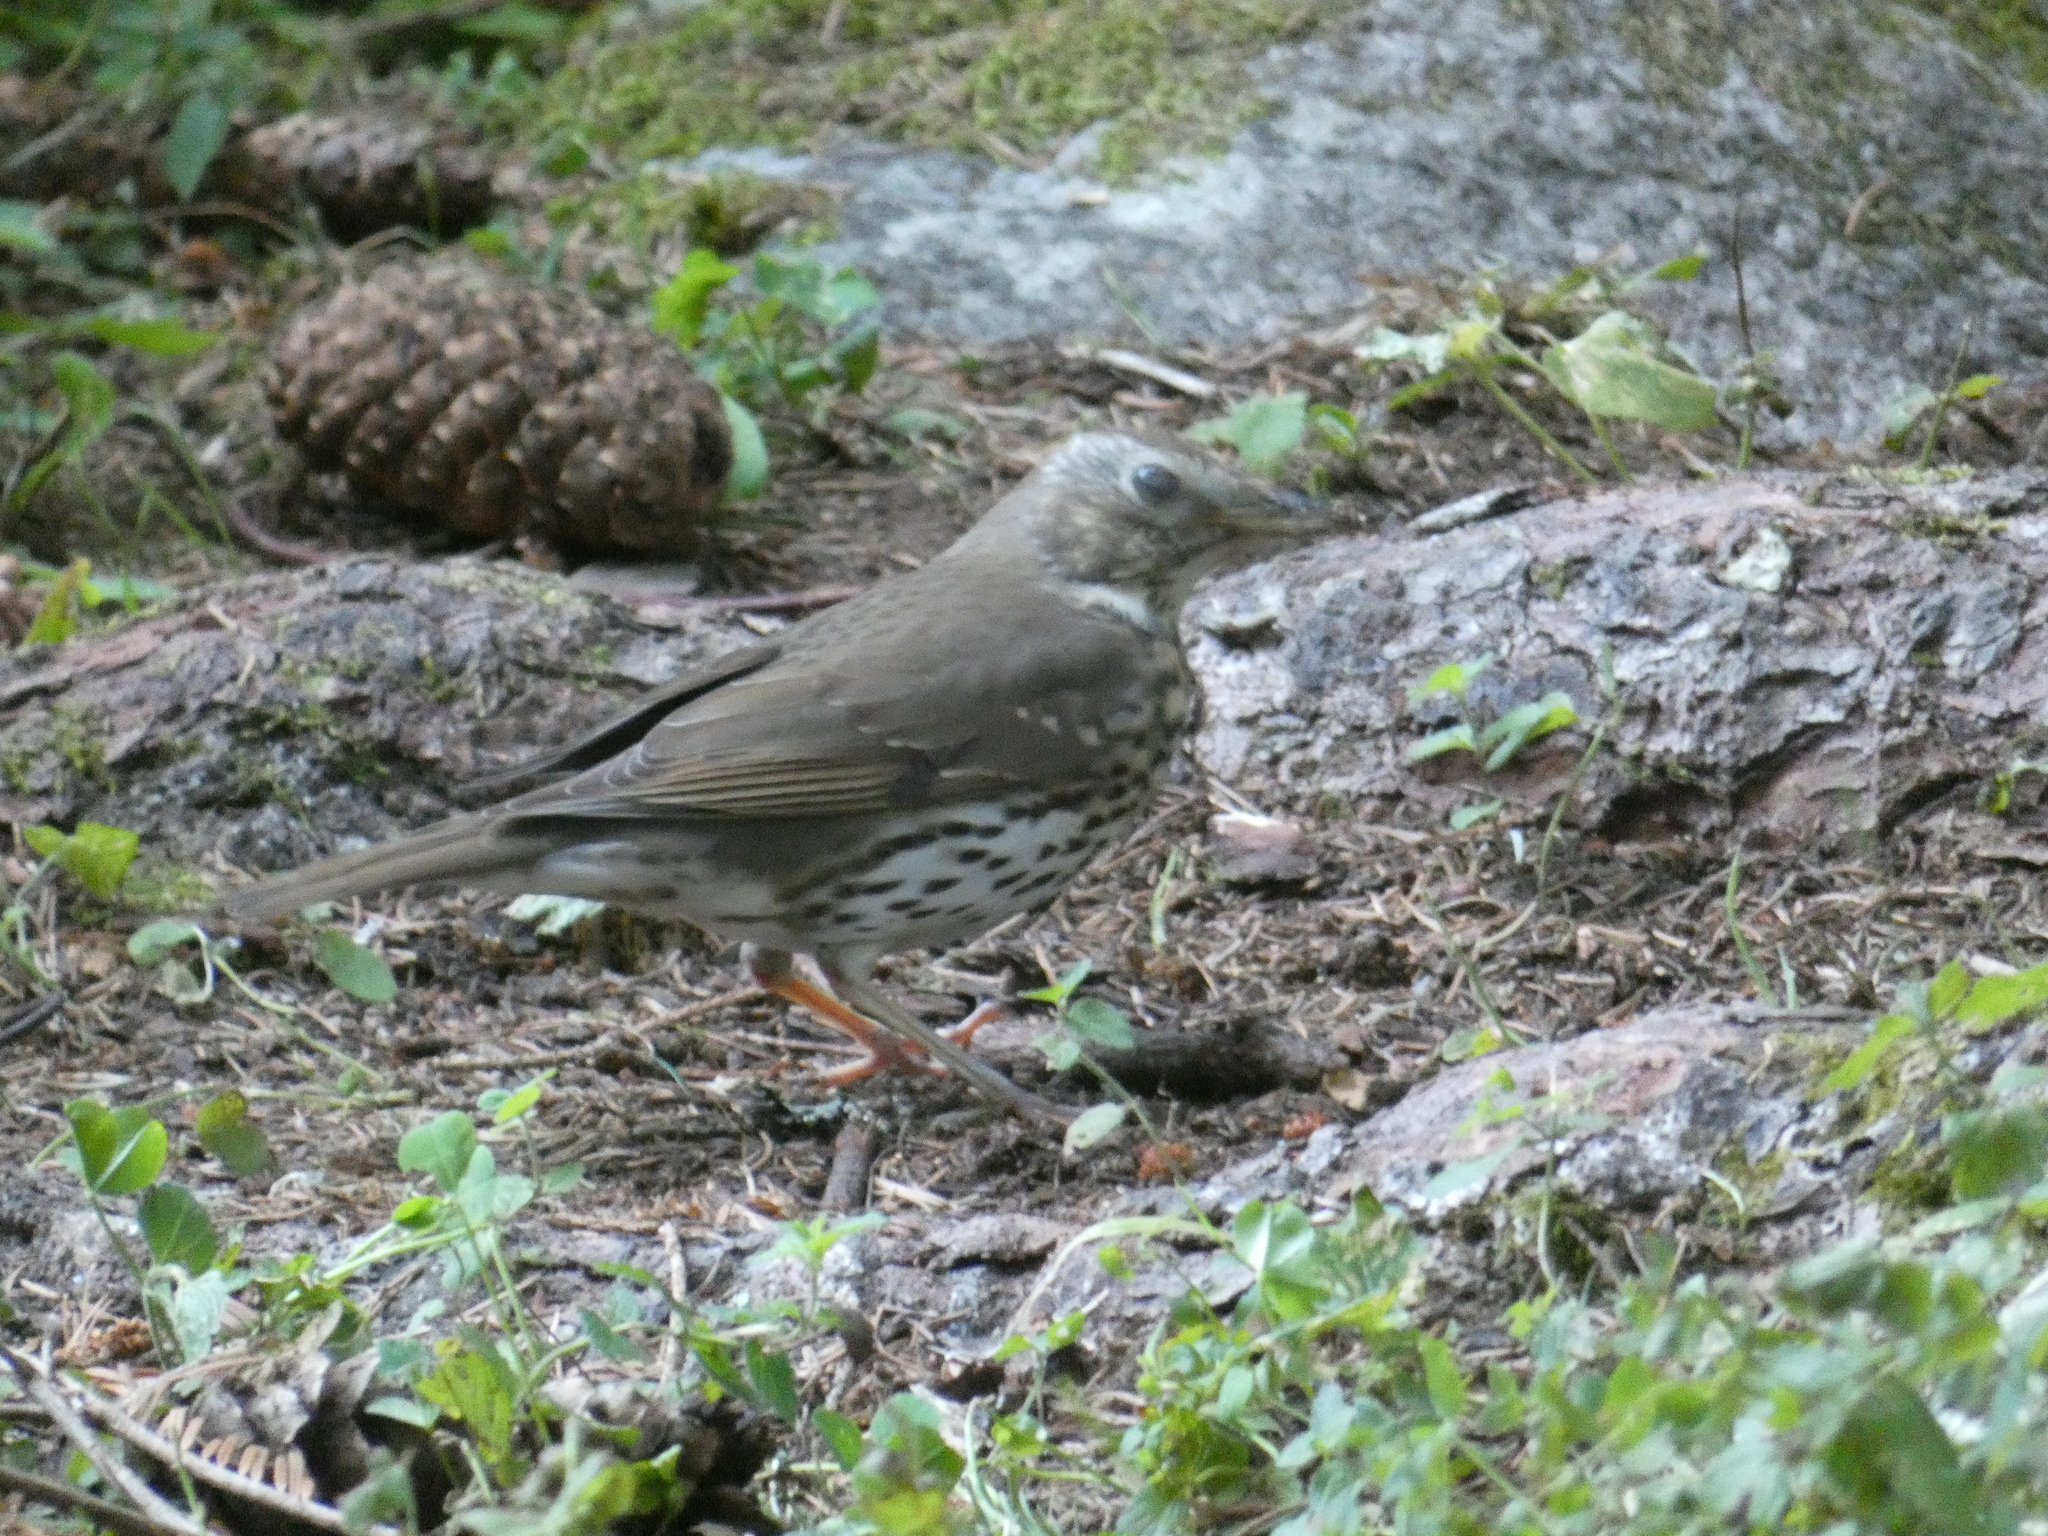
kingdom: Animalia
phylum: Chordata
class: Aves
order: Passeriformes
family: Turdidae
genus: Turdus
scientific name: Turdus philomelos
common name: Song thrush
